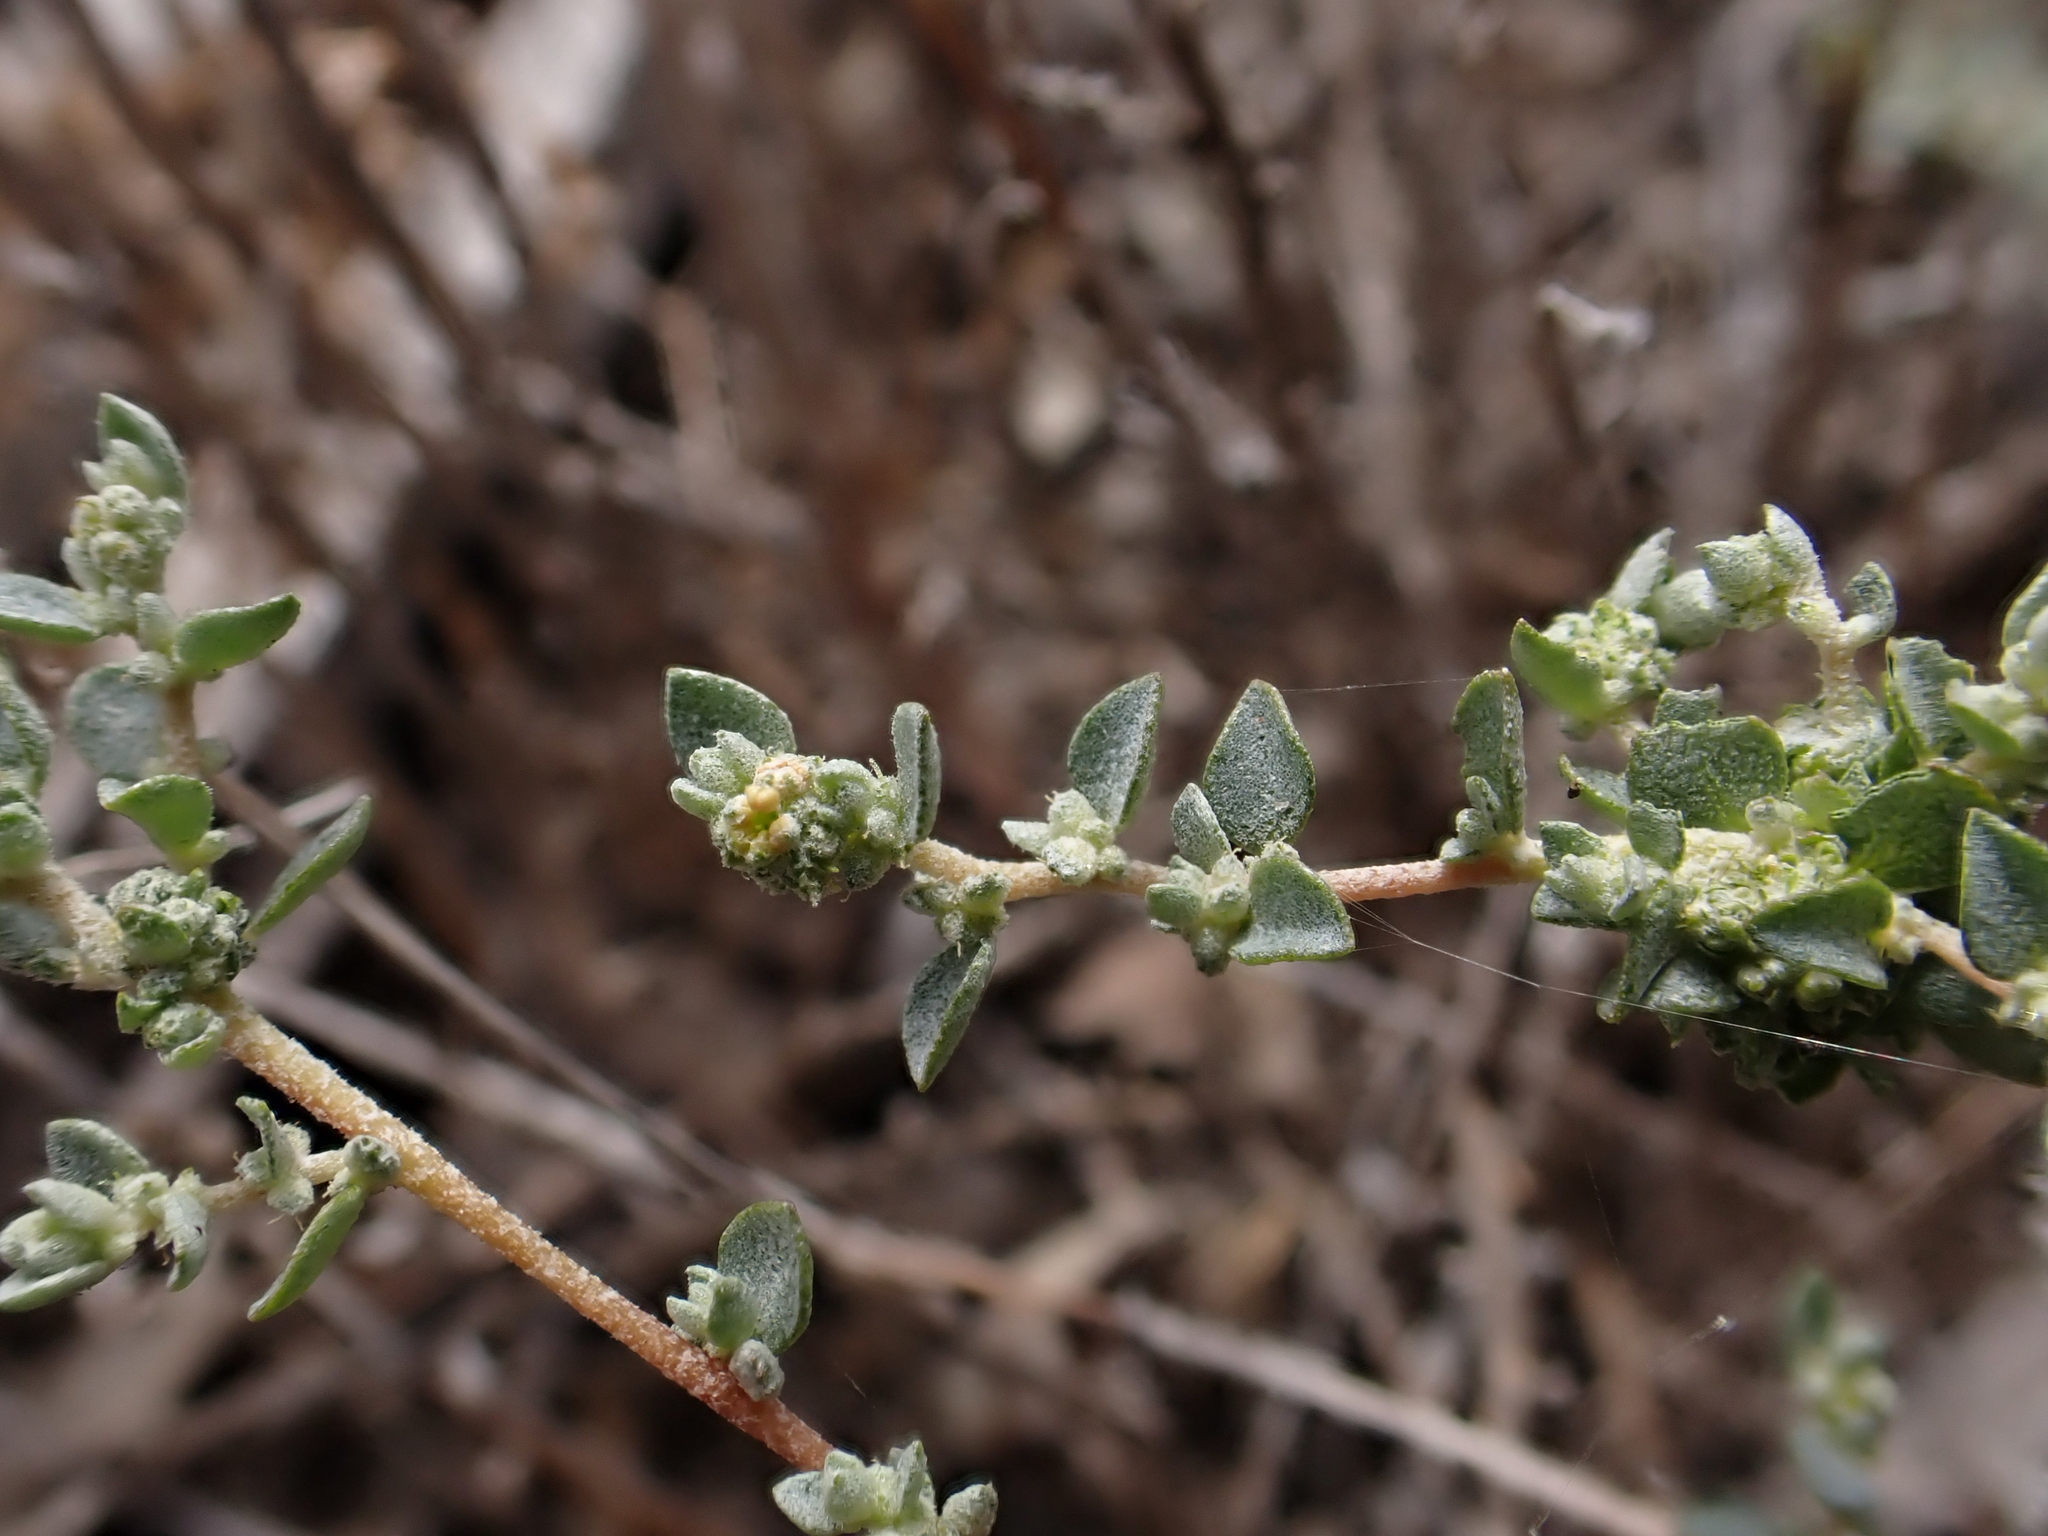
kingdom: Plantae
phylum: Tracheophyta
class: Magnoliopsida
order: Caryophyllales
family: Amaranthaceae
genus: Atriplex
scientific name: Atriplex pumilio
